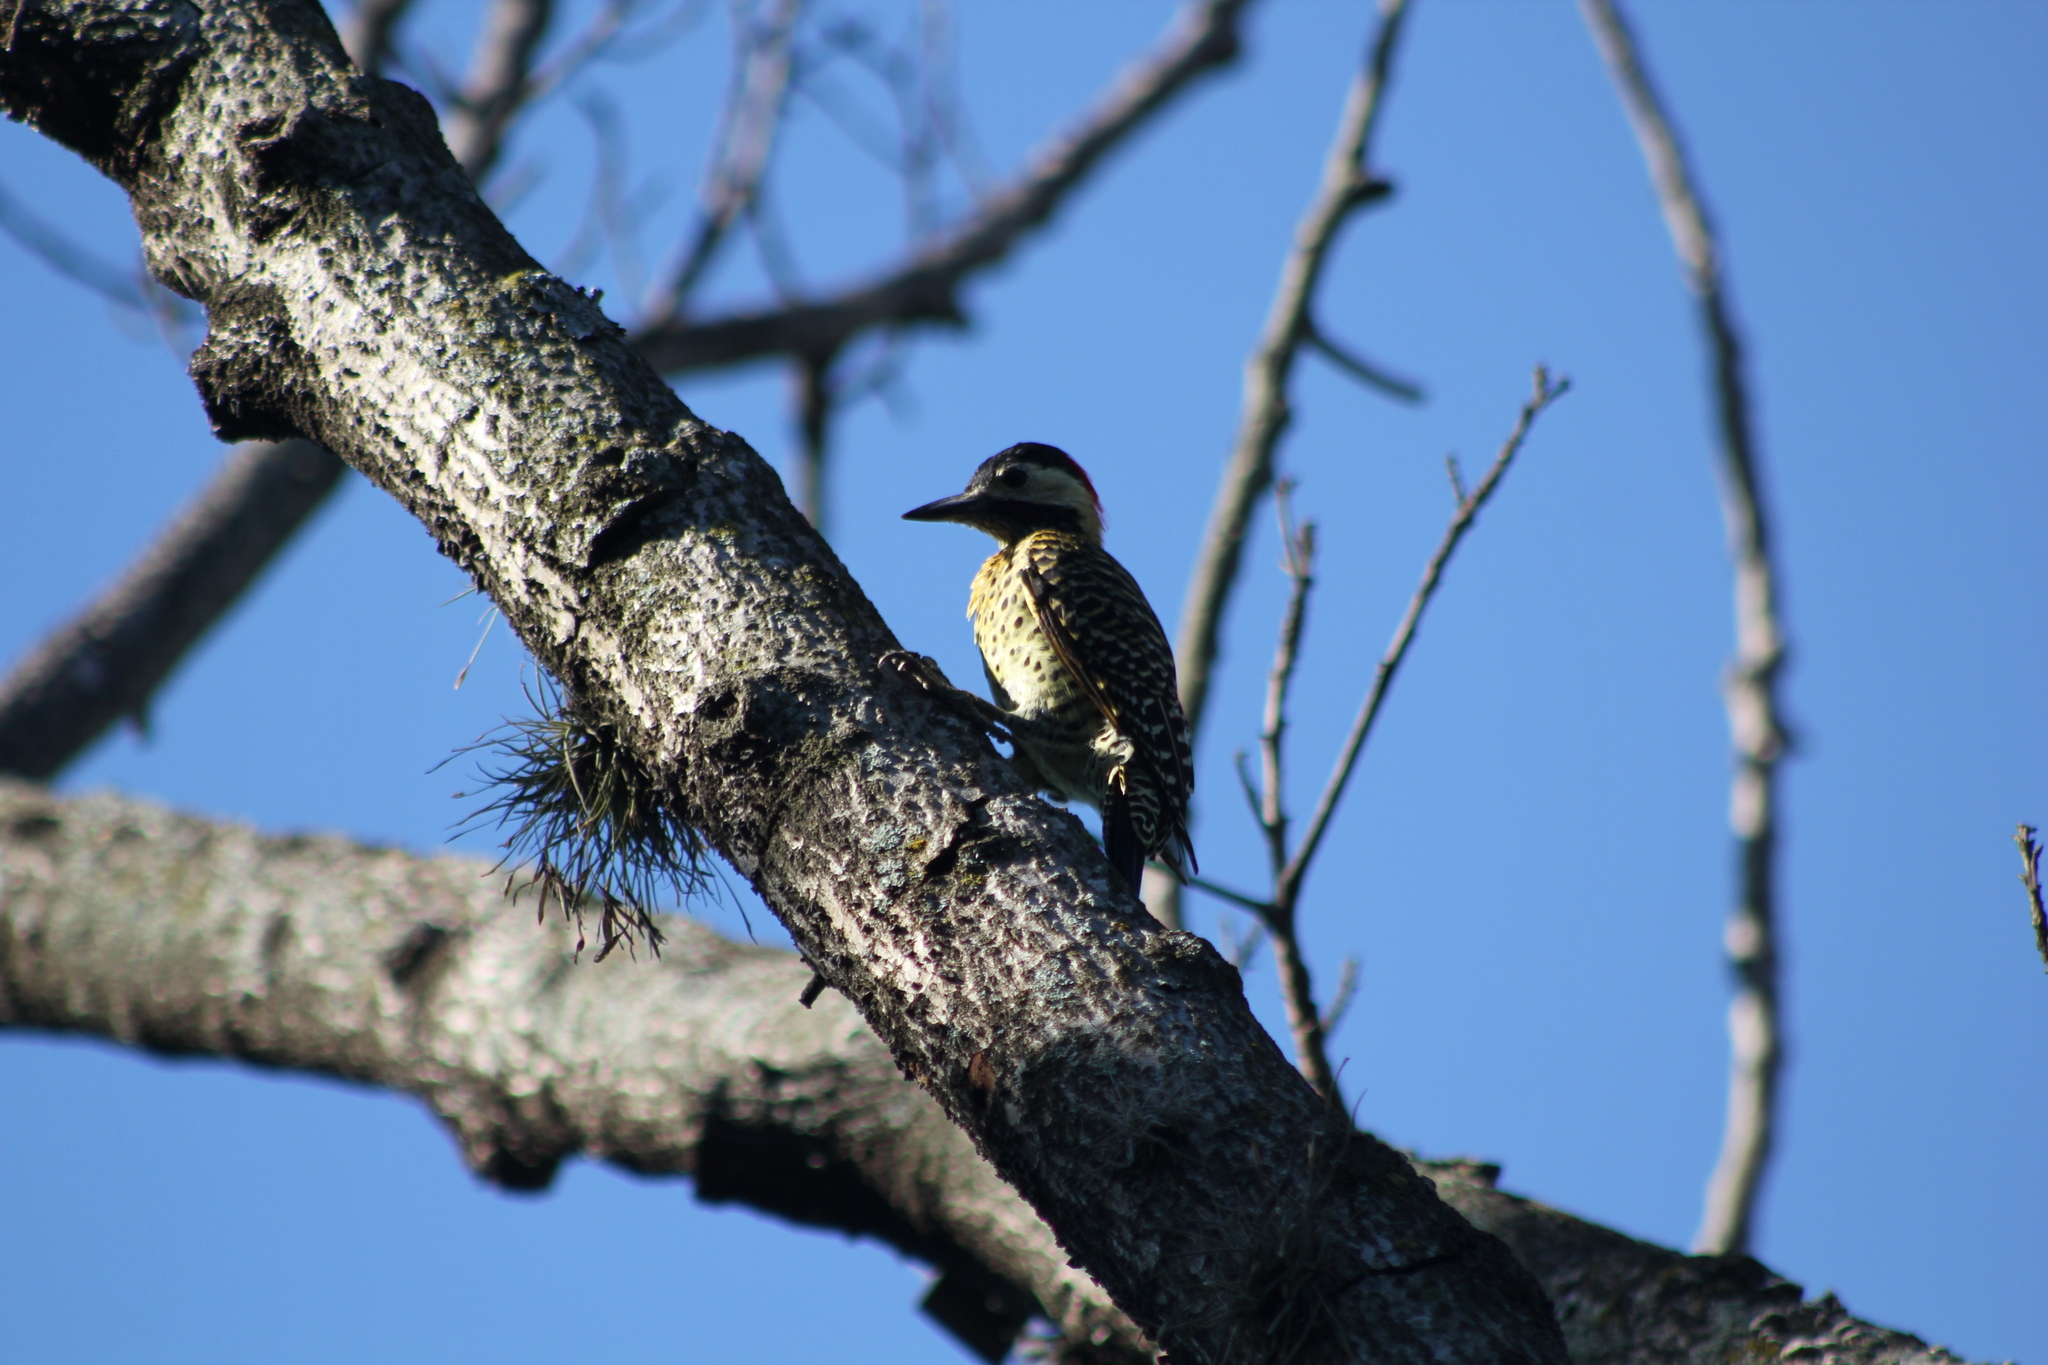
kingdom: Animalia
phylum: Chordata
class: Aves
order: Piciformes
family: Picidae
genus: Colaptes
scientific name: Colaptes melanochloros
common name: Green-barred woodpecker
